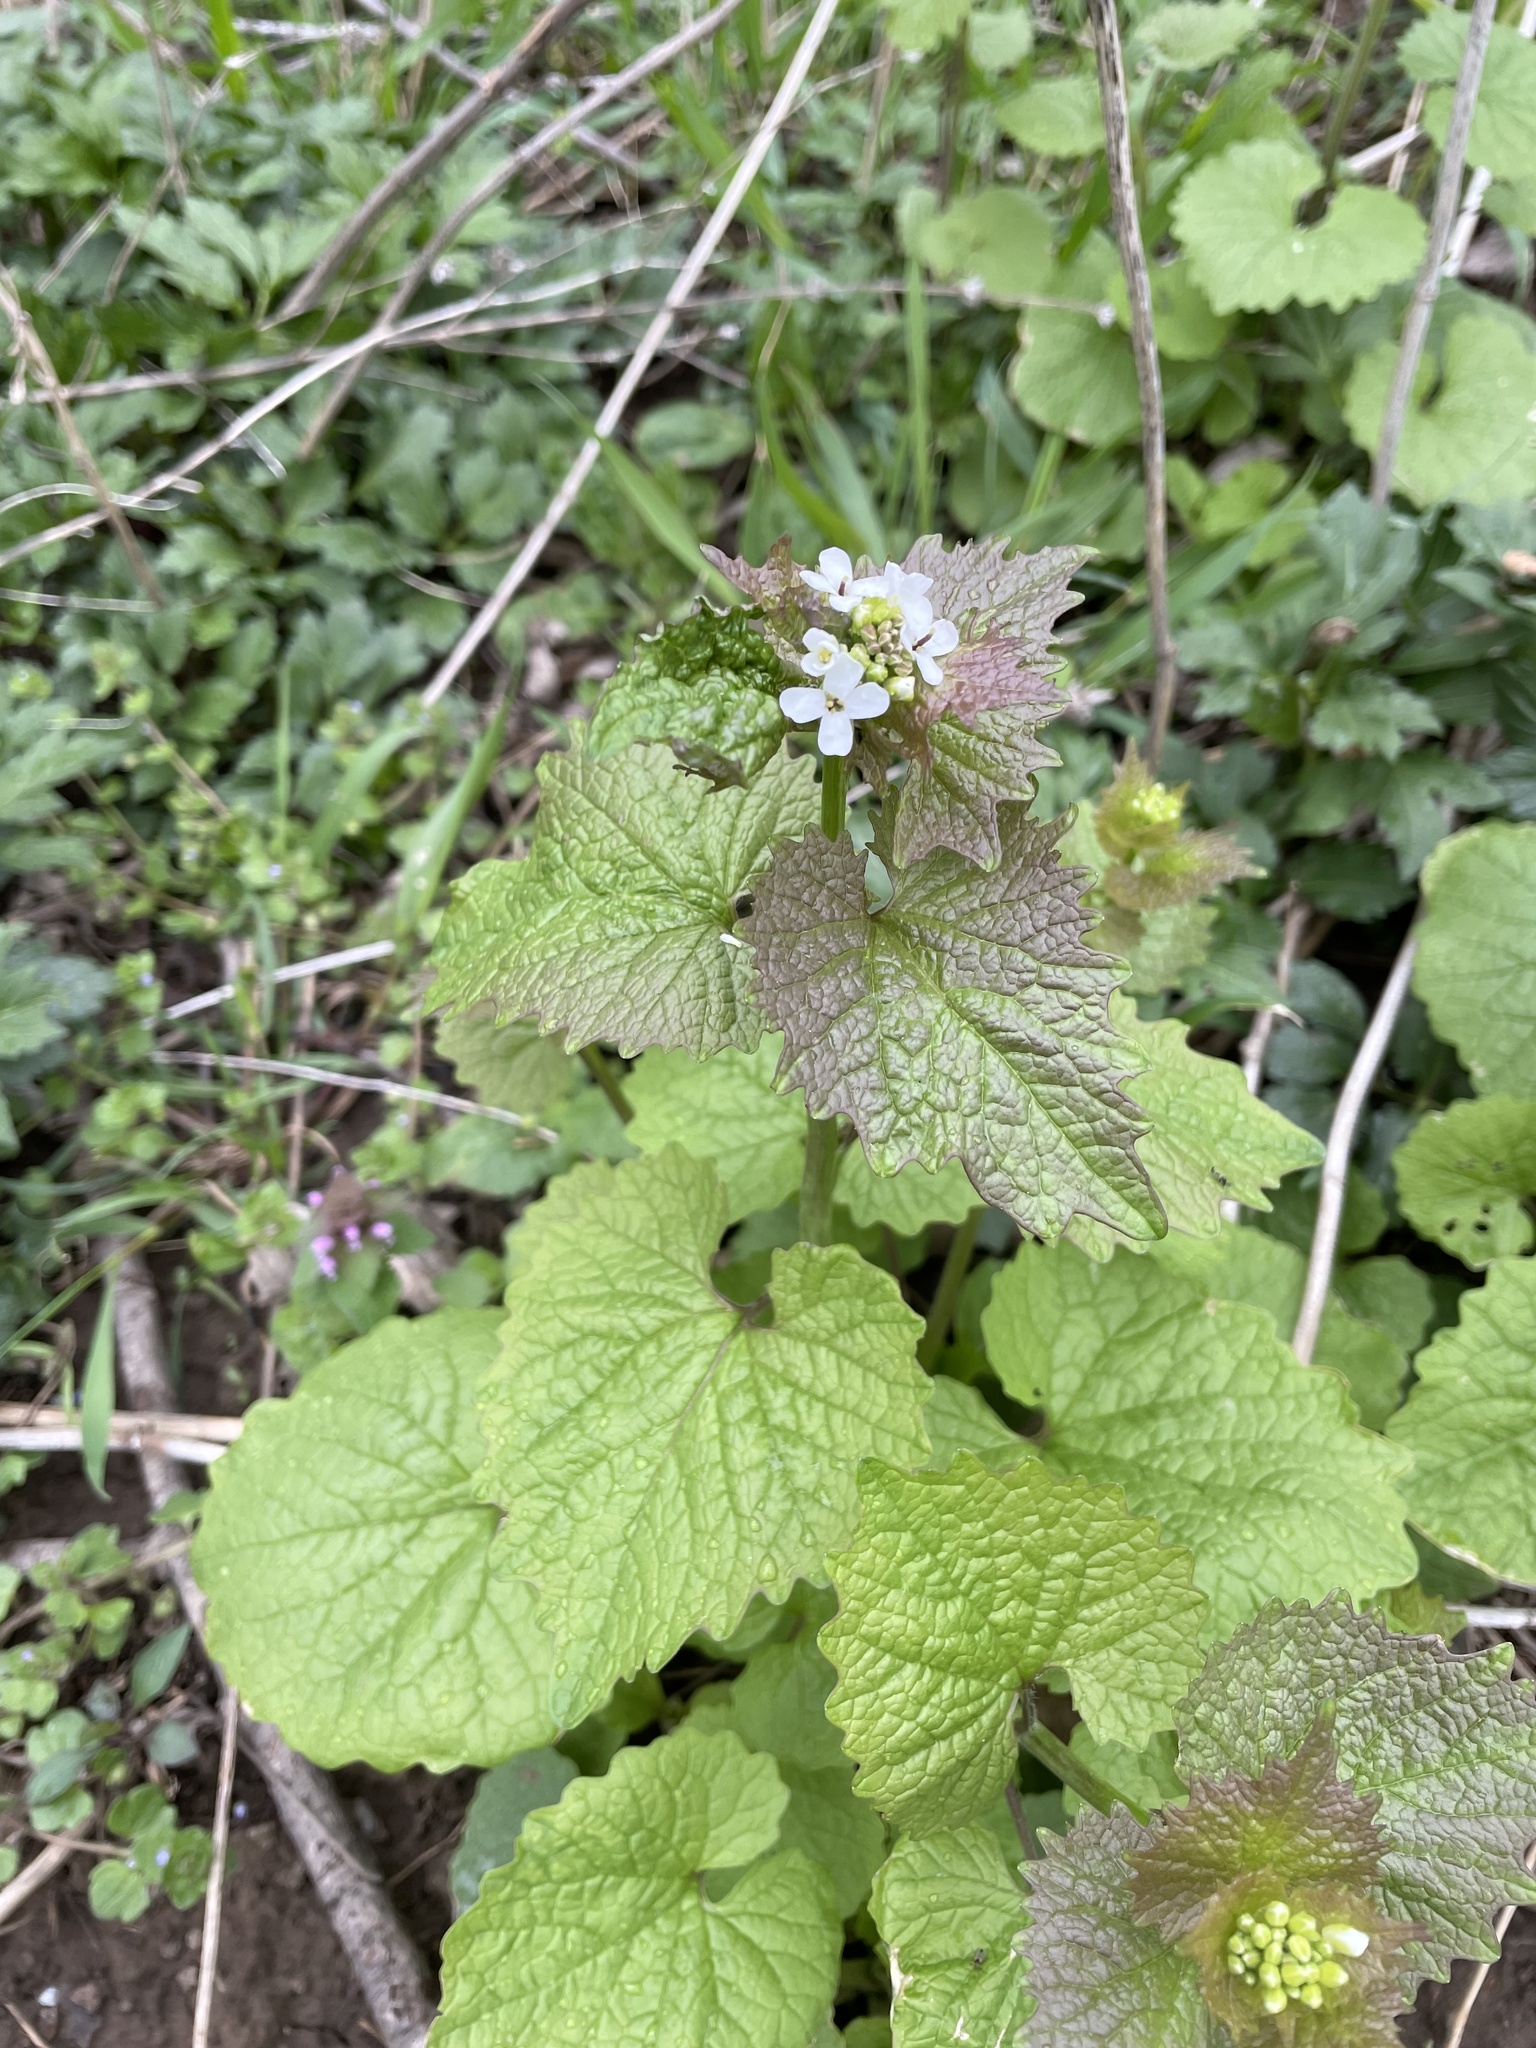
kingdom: Plantae
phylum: Tracheophyta
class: Magnoliopsida
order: Brassicales
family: Brassicaceae
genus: Alliaria
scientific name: Alliaria petiolata
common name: Garlic mustard
